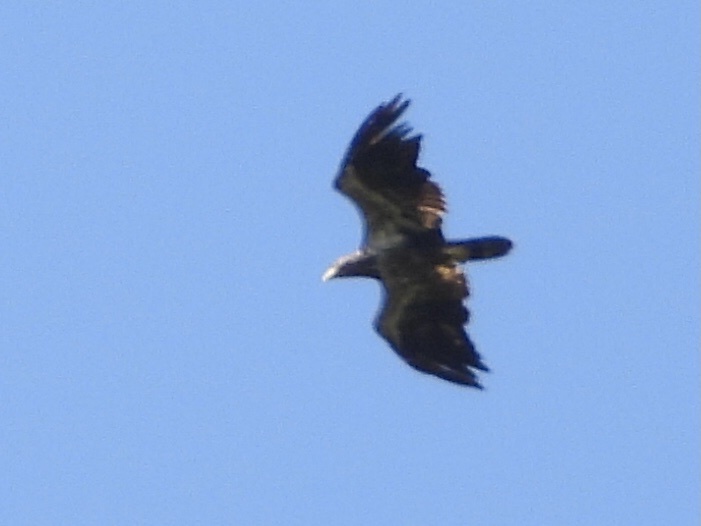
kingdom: Animalia
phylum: Chordata
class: Aves
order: Accipitriformes
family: Accipitridae
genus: Haliaeetus
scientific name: Haliaeetus leucocephalus
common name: Bald eagle
